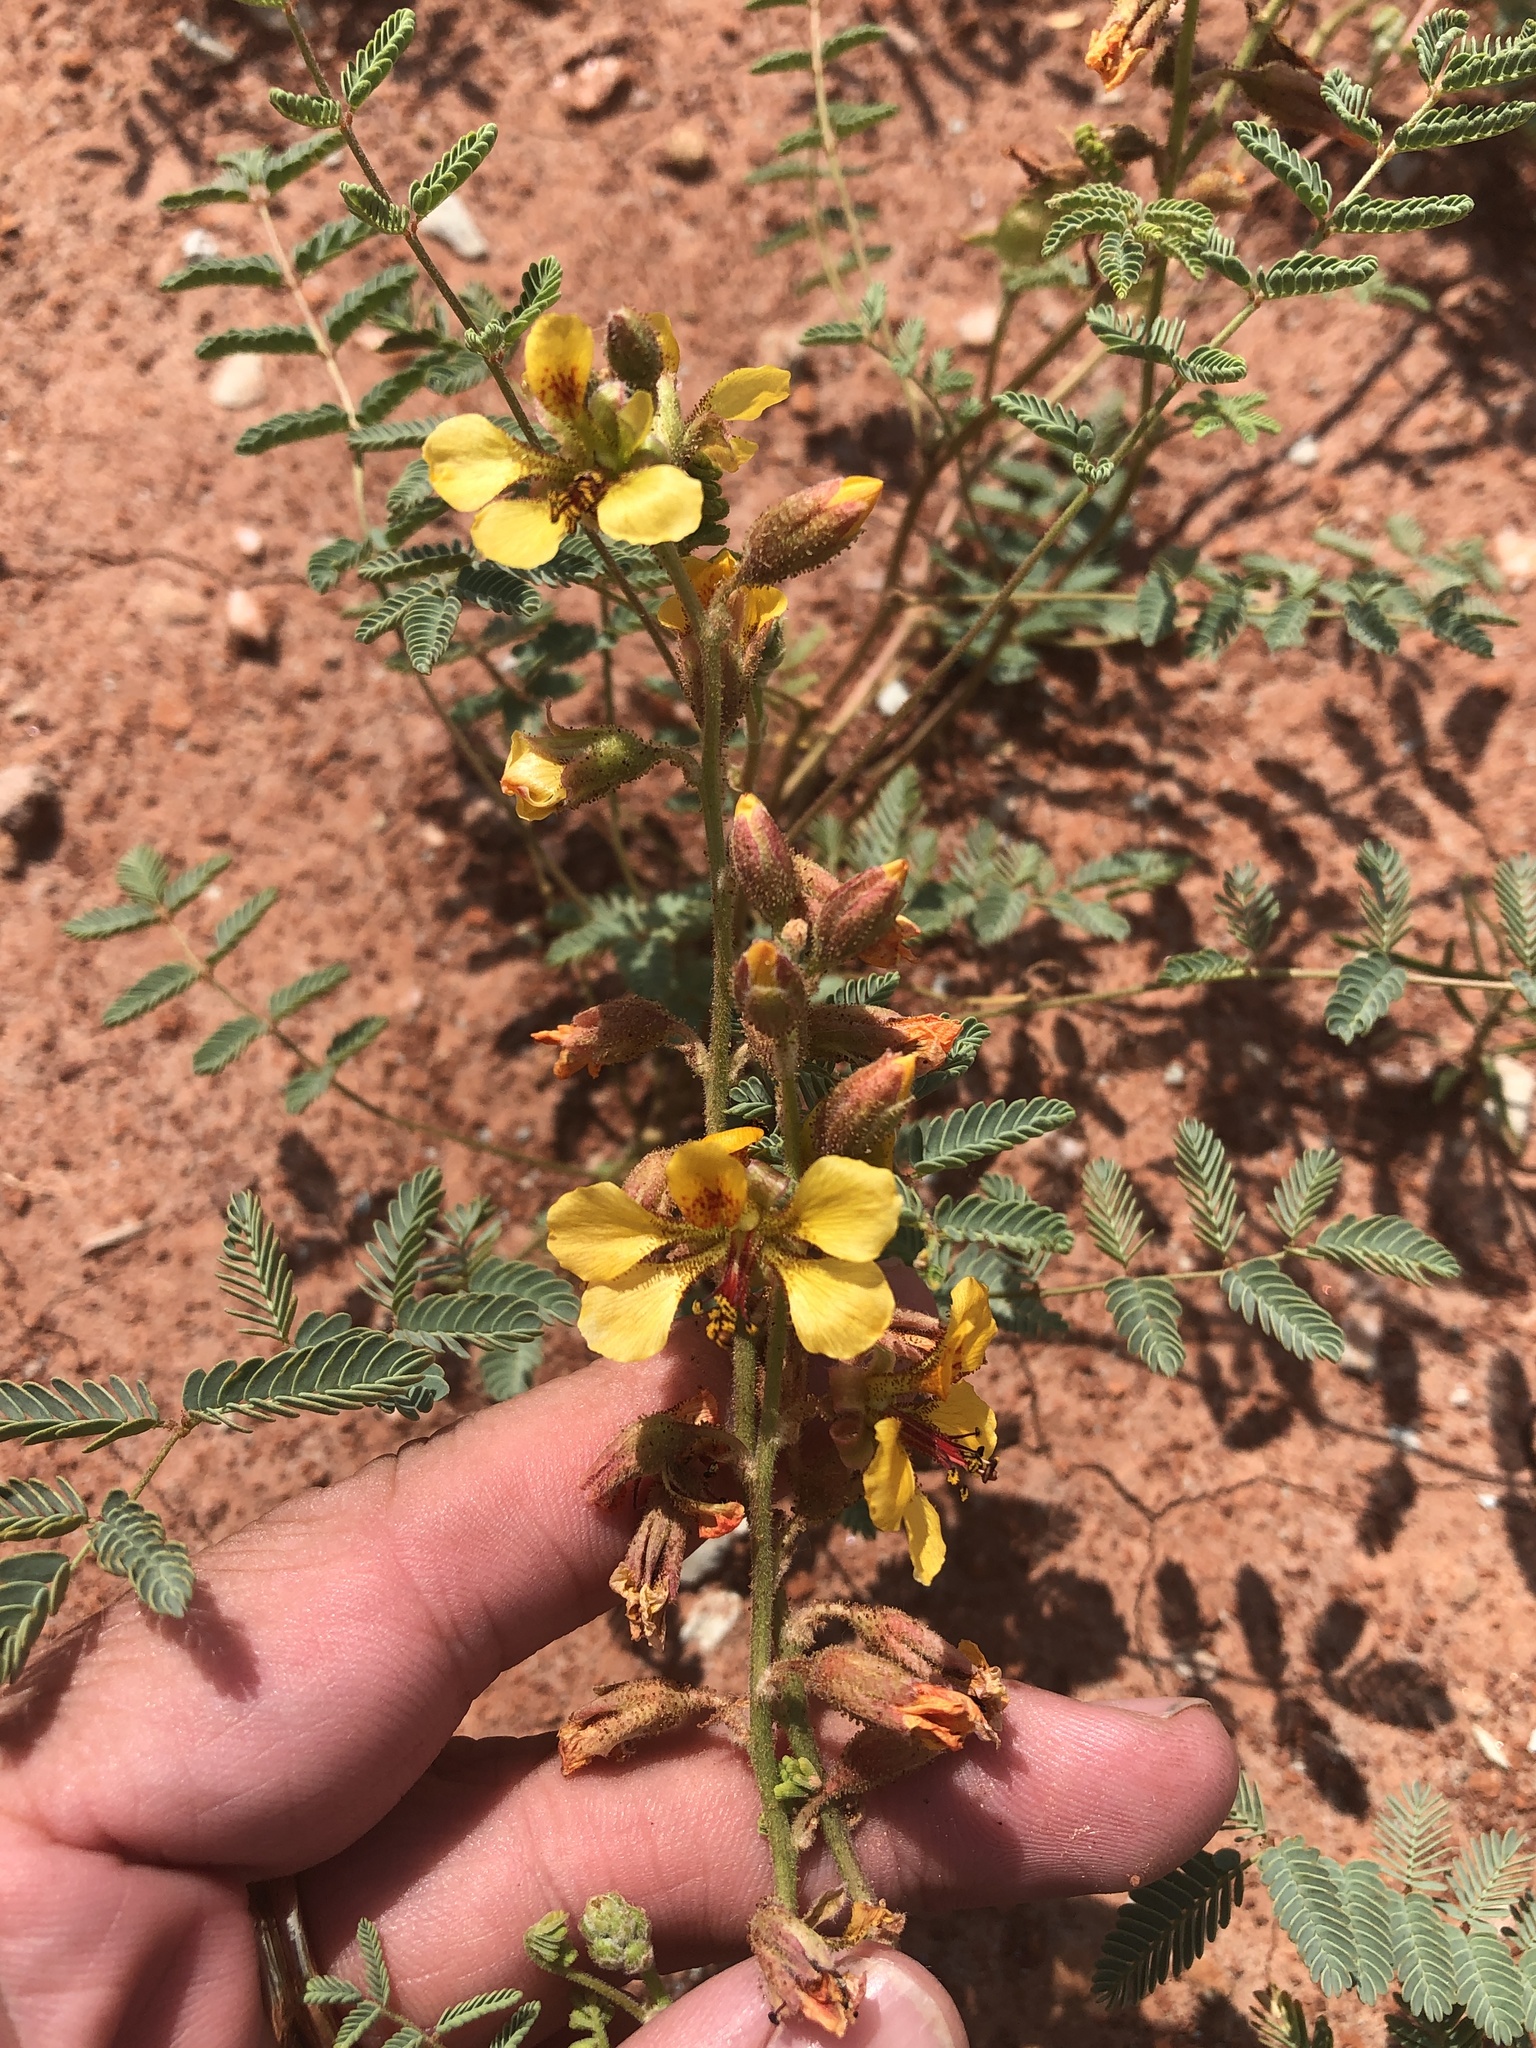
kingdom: Plantae
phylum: Tracheophyta
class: Magnoliopsida
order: Fabales
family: Fabaceae
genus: Hoffmannseggia
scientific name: Hoffmannseggia glauca
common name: Pignut
